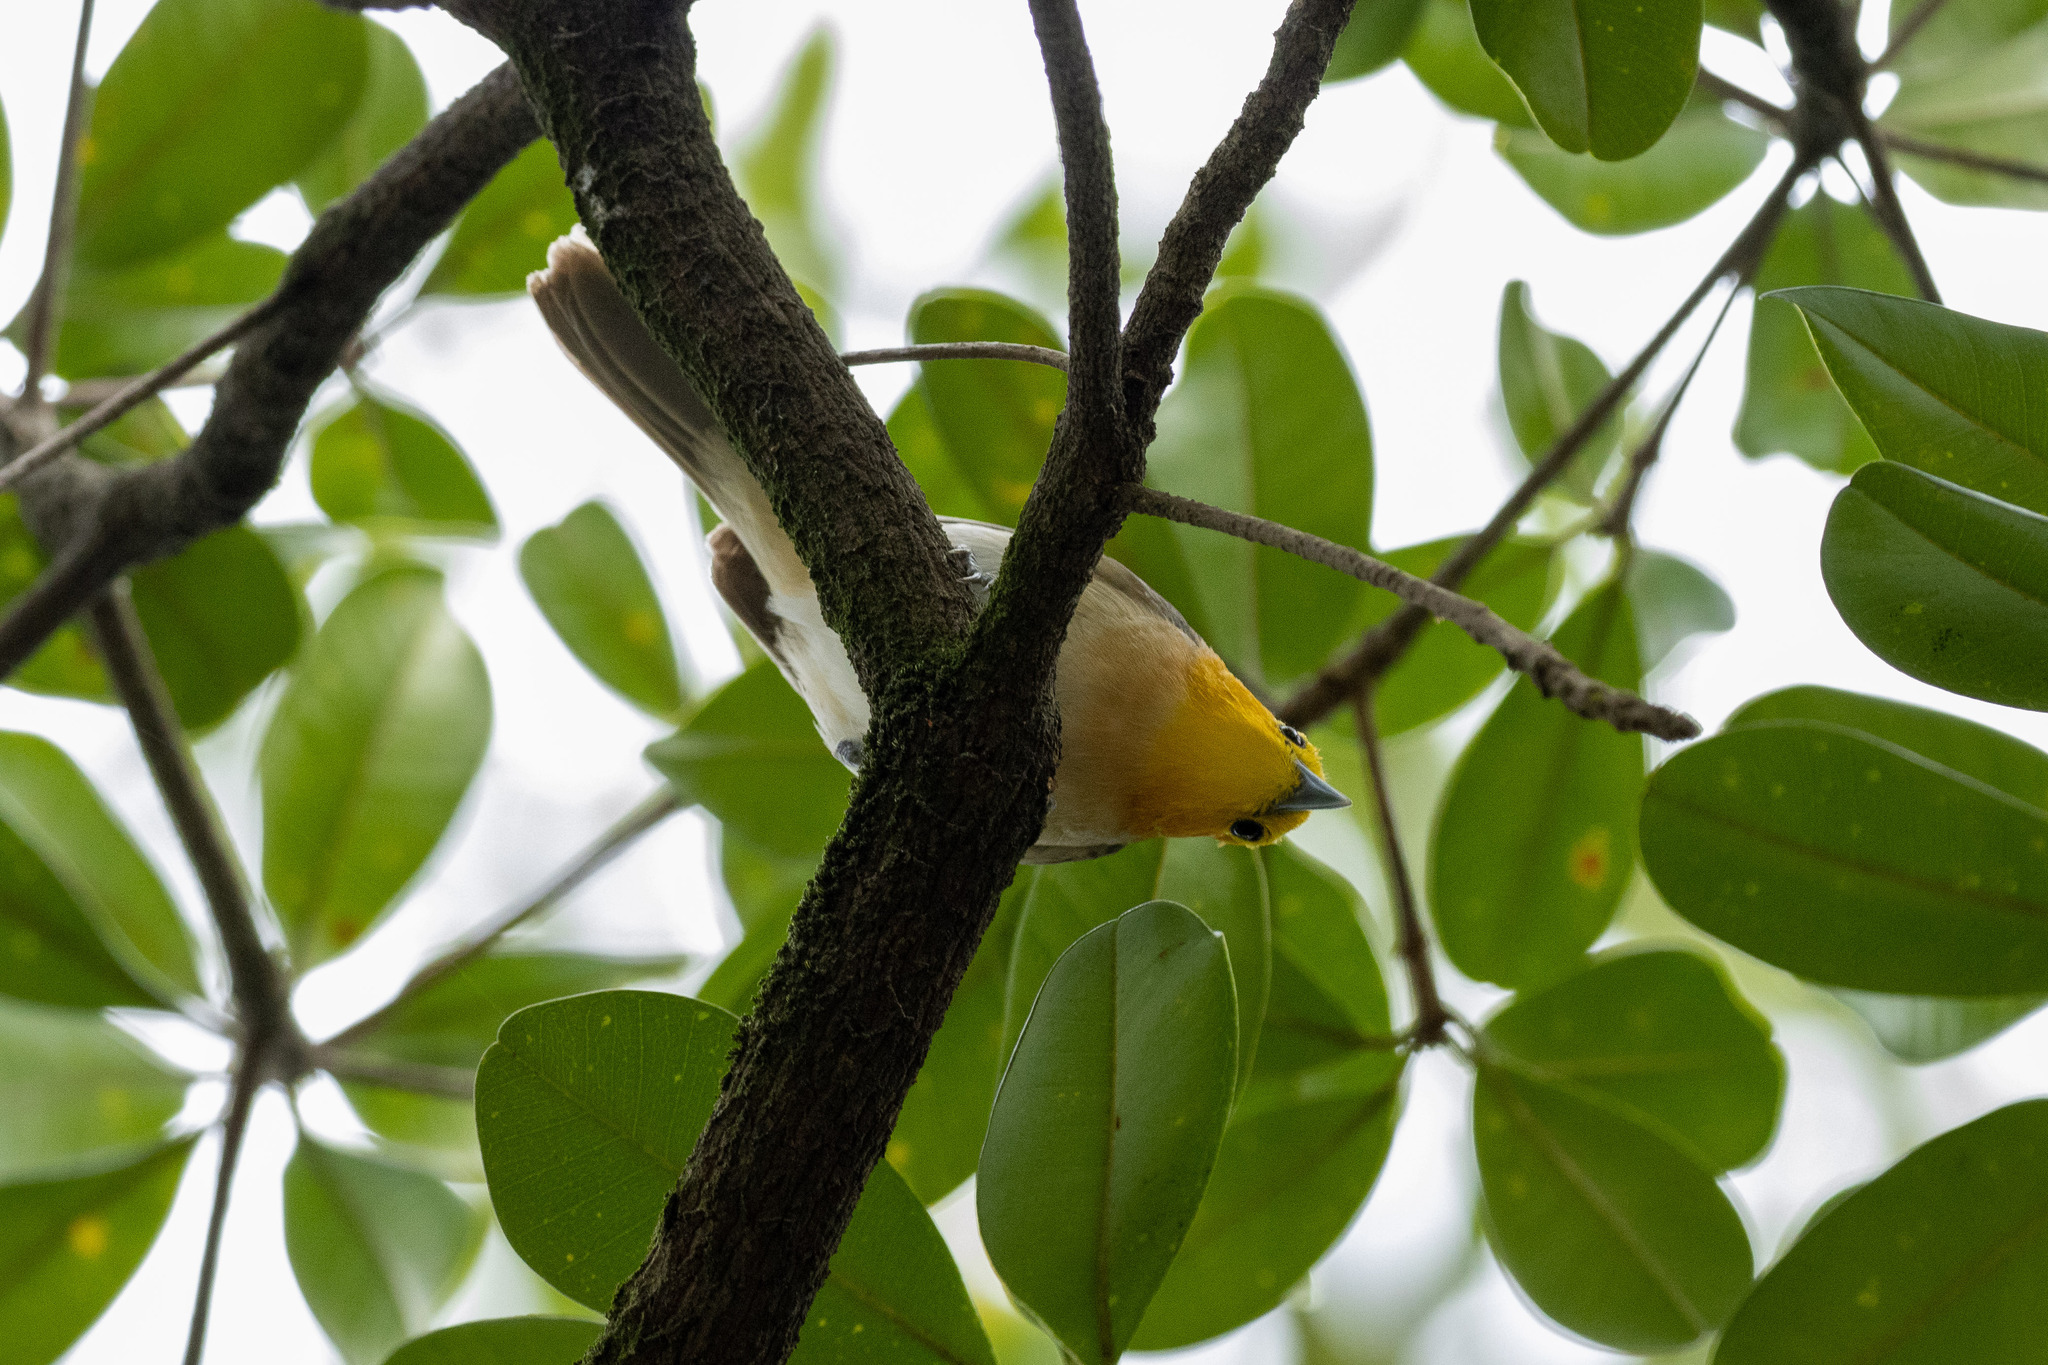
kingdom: Animalia
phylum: Chordata
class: Aves
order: Passeriformes
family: Thraupidae
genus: Thlypopsis
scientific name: Thlypopsis sordida
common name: Orange-headed tanager
